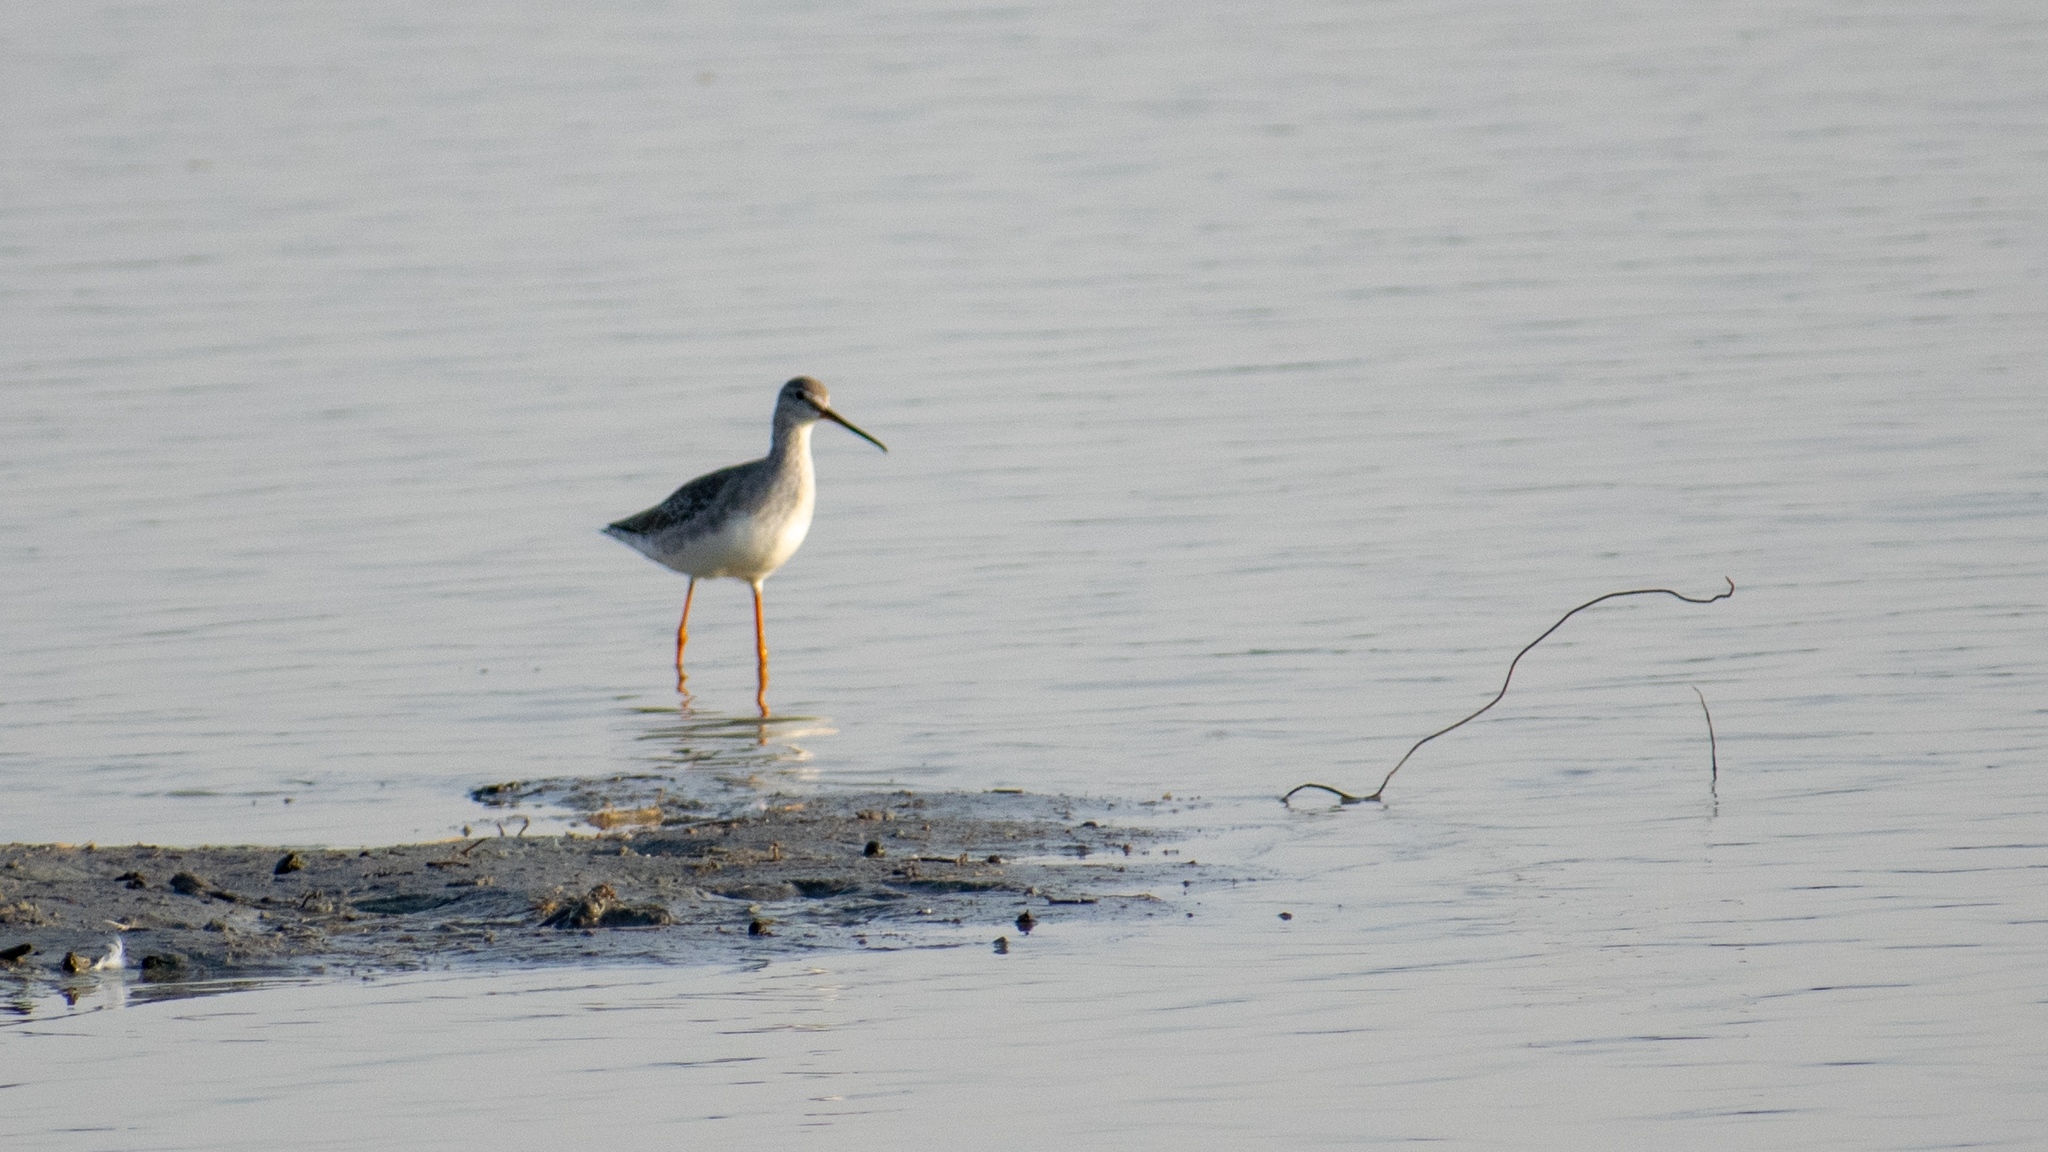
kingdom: Animalia
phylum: Chordata
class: Aves
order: Charadriiformes
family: Scolopacidae
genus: Tringa
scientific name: Tringa erythropus
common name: Spotted redshank
